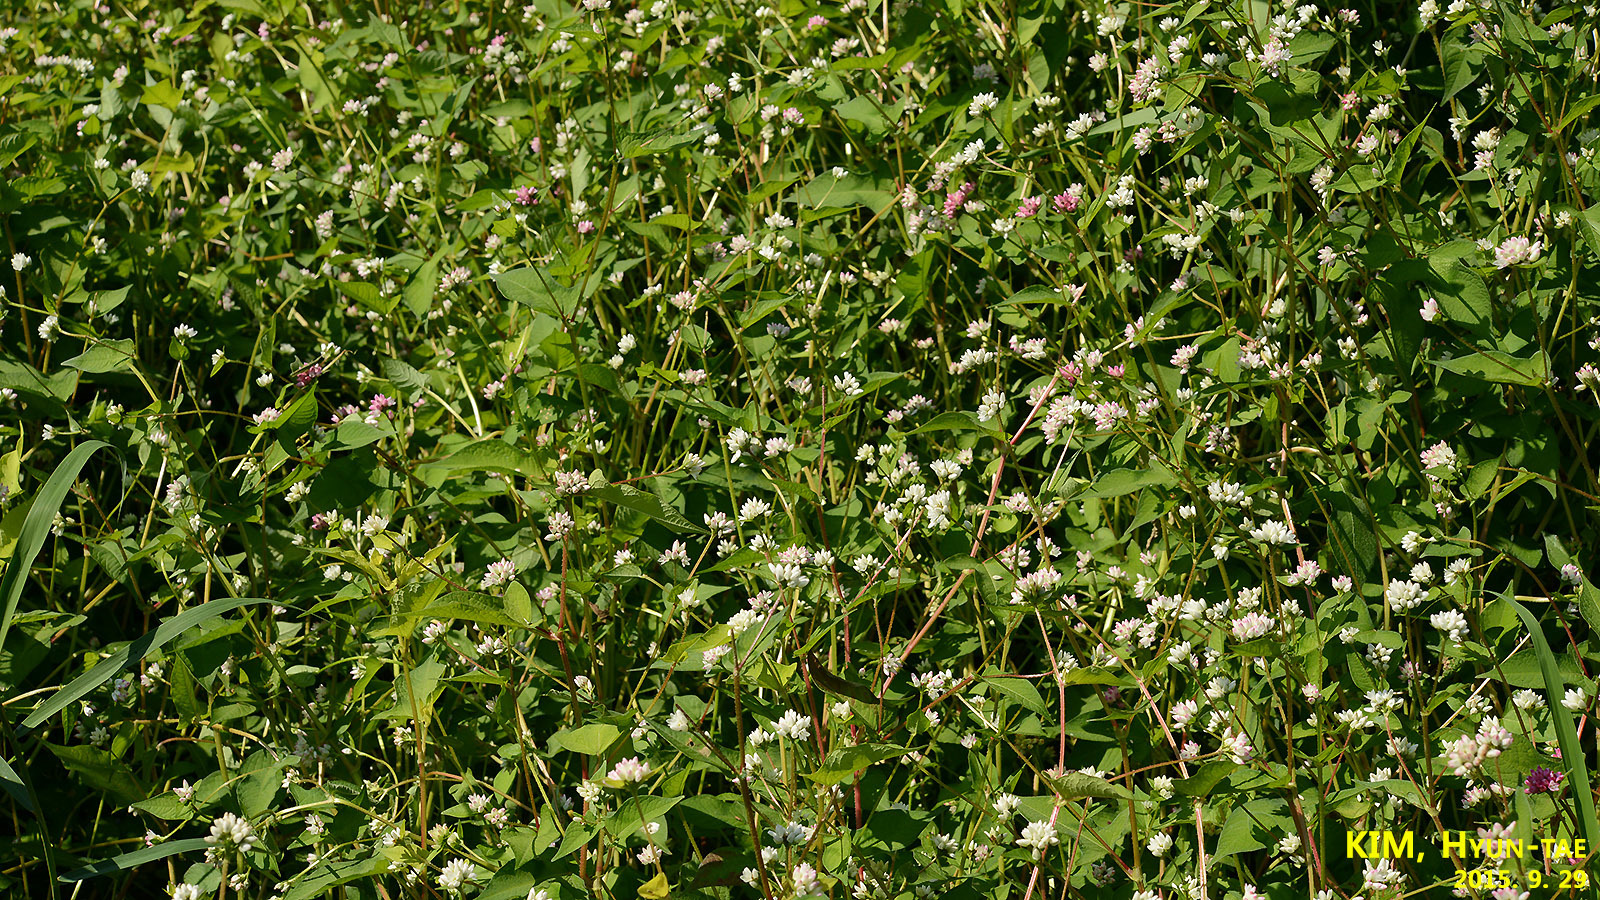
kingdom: Plantae
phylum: Tracheophyta
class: Magnoliopsida
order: Caryophyllales
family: Polygonaceae
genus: Persicaria
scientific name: Persicaria thunbergii
